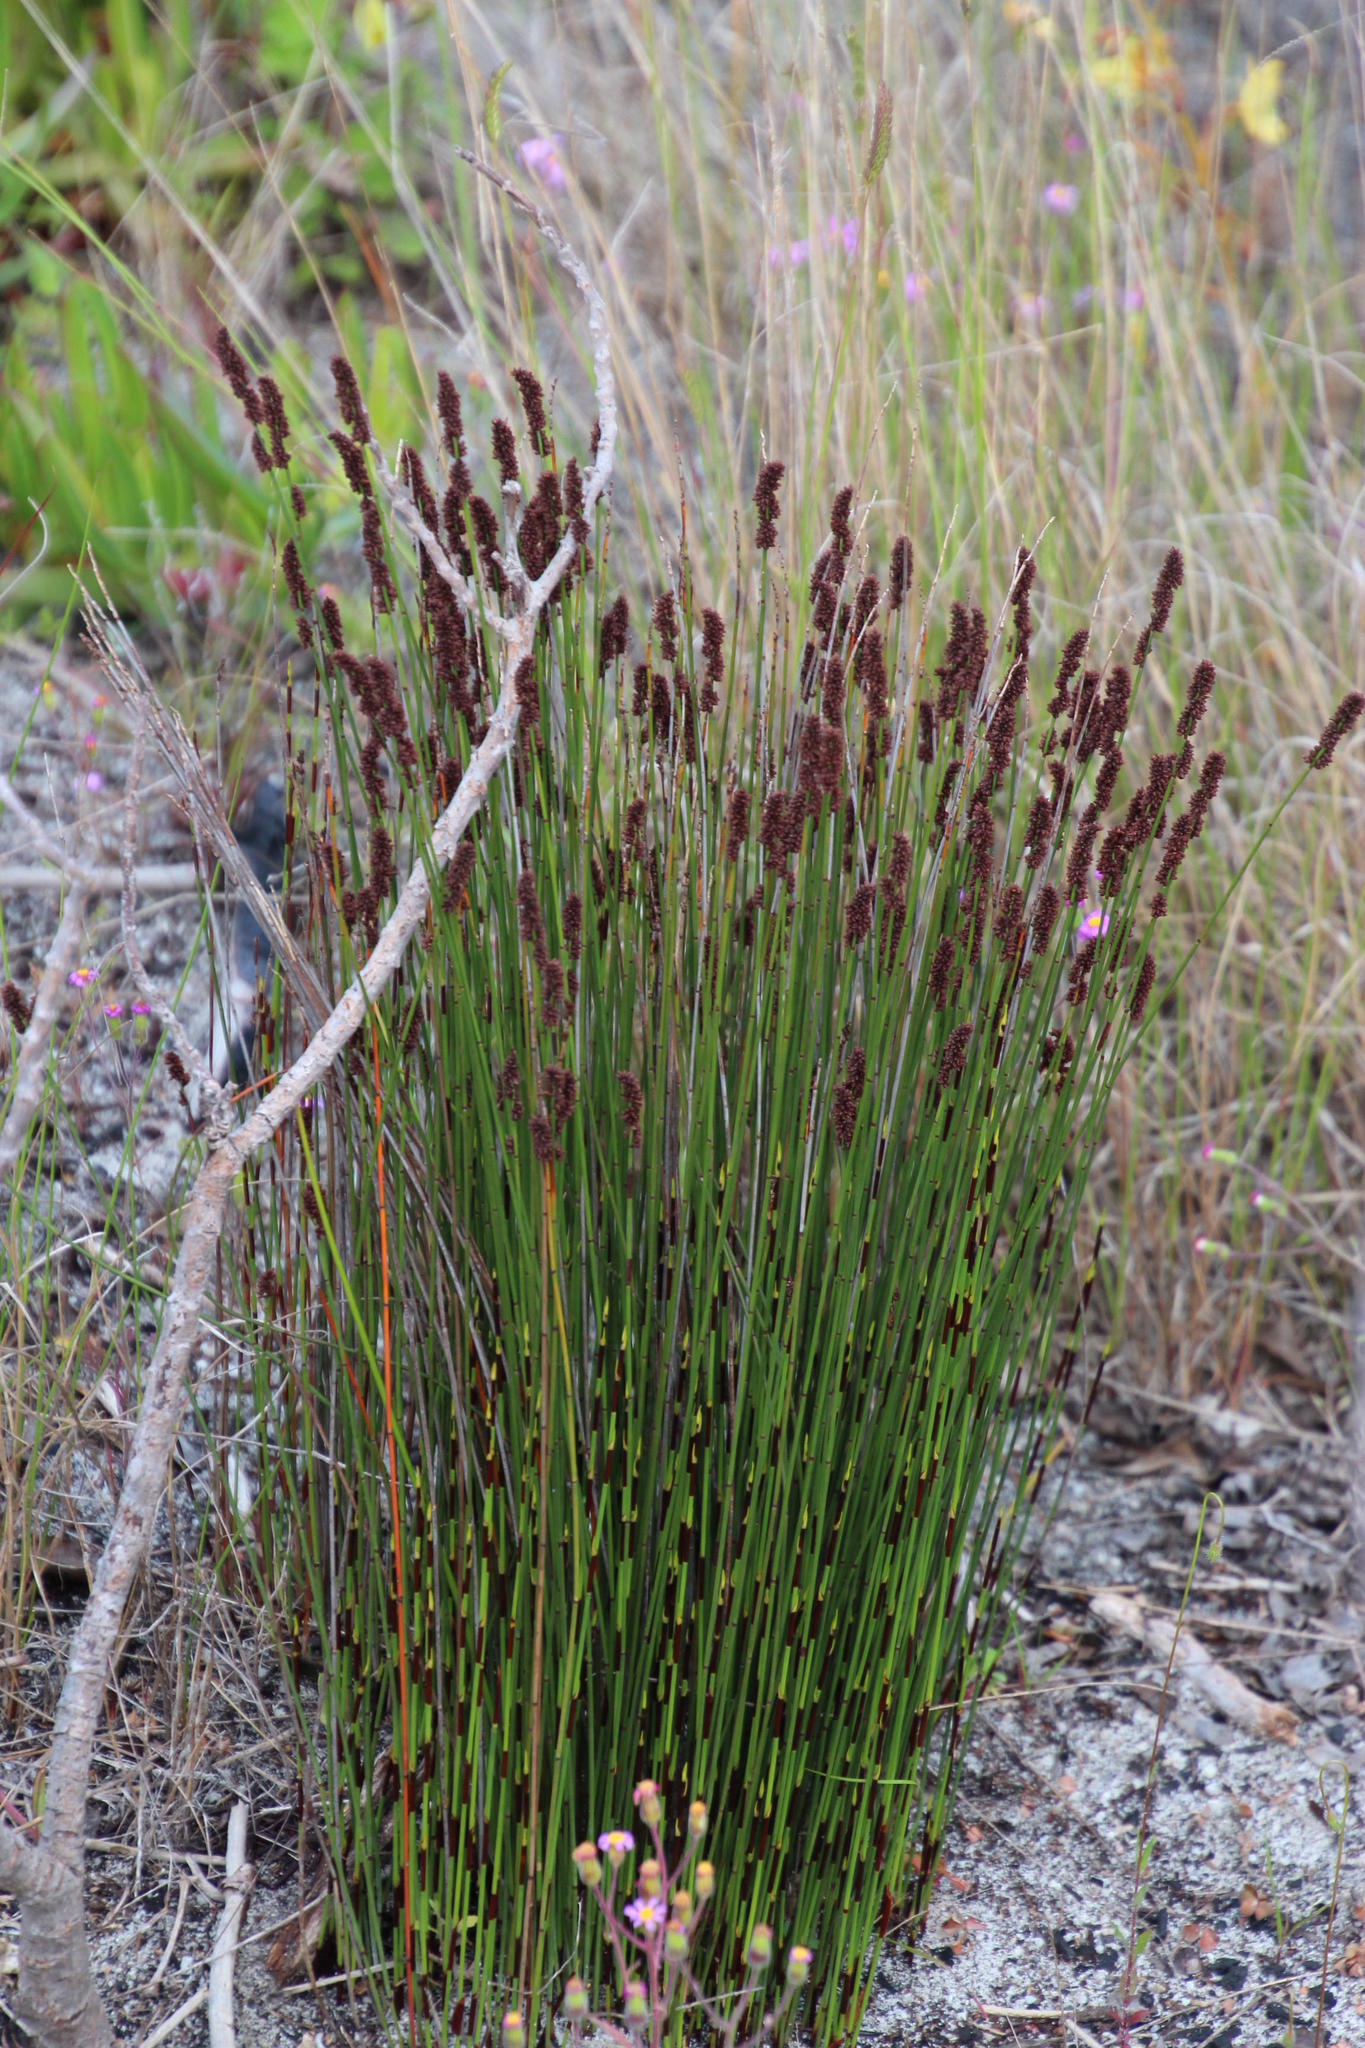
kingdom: Plantae
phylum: Tracheophyta
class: Liliopsida
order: Poales
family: Restionaceae
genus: Elegia
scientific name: Elegia tectorum
